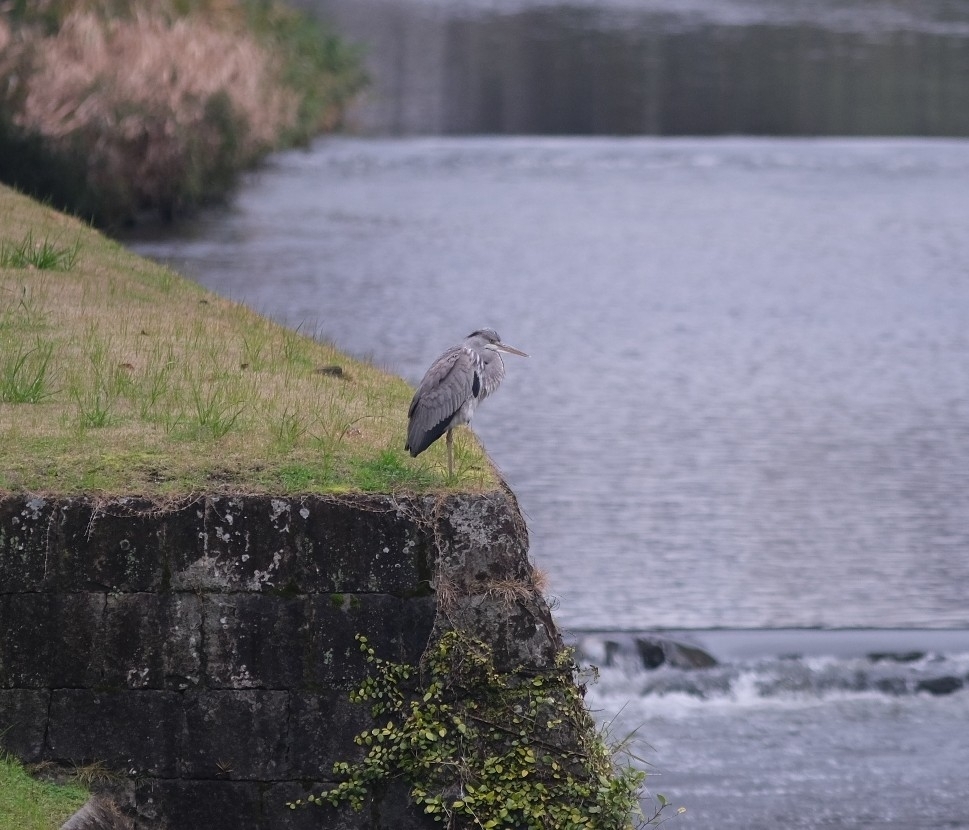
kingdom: Animalia
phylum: Chordata
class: Aves
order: Pelecaniformes
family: Ardeidae
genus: Ardea
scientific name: Ardea cinerea
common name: Grey heron
